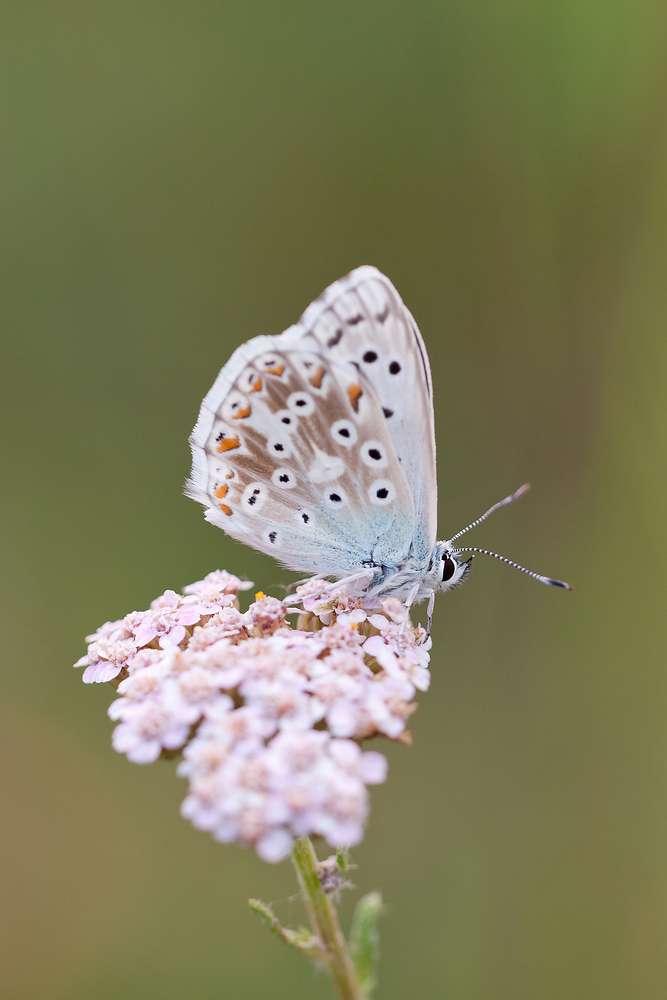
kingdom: Animalia
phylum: Arthropoda
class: Insecta
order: Lepidoptera
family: Lycaenidae
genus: Lysandra
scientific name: Lysandra coridon
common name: Chalkhill blue
